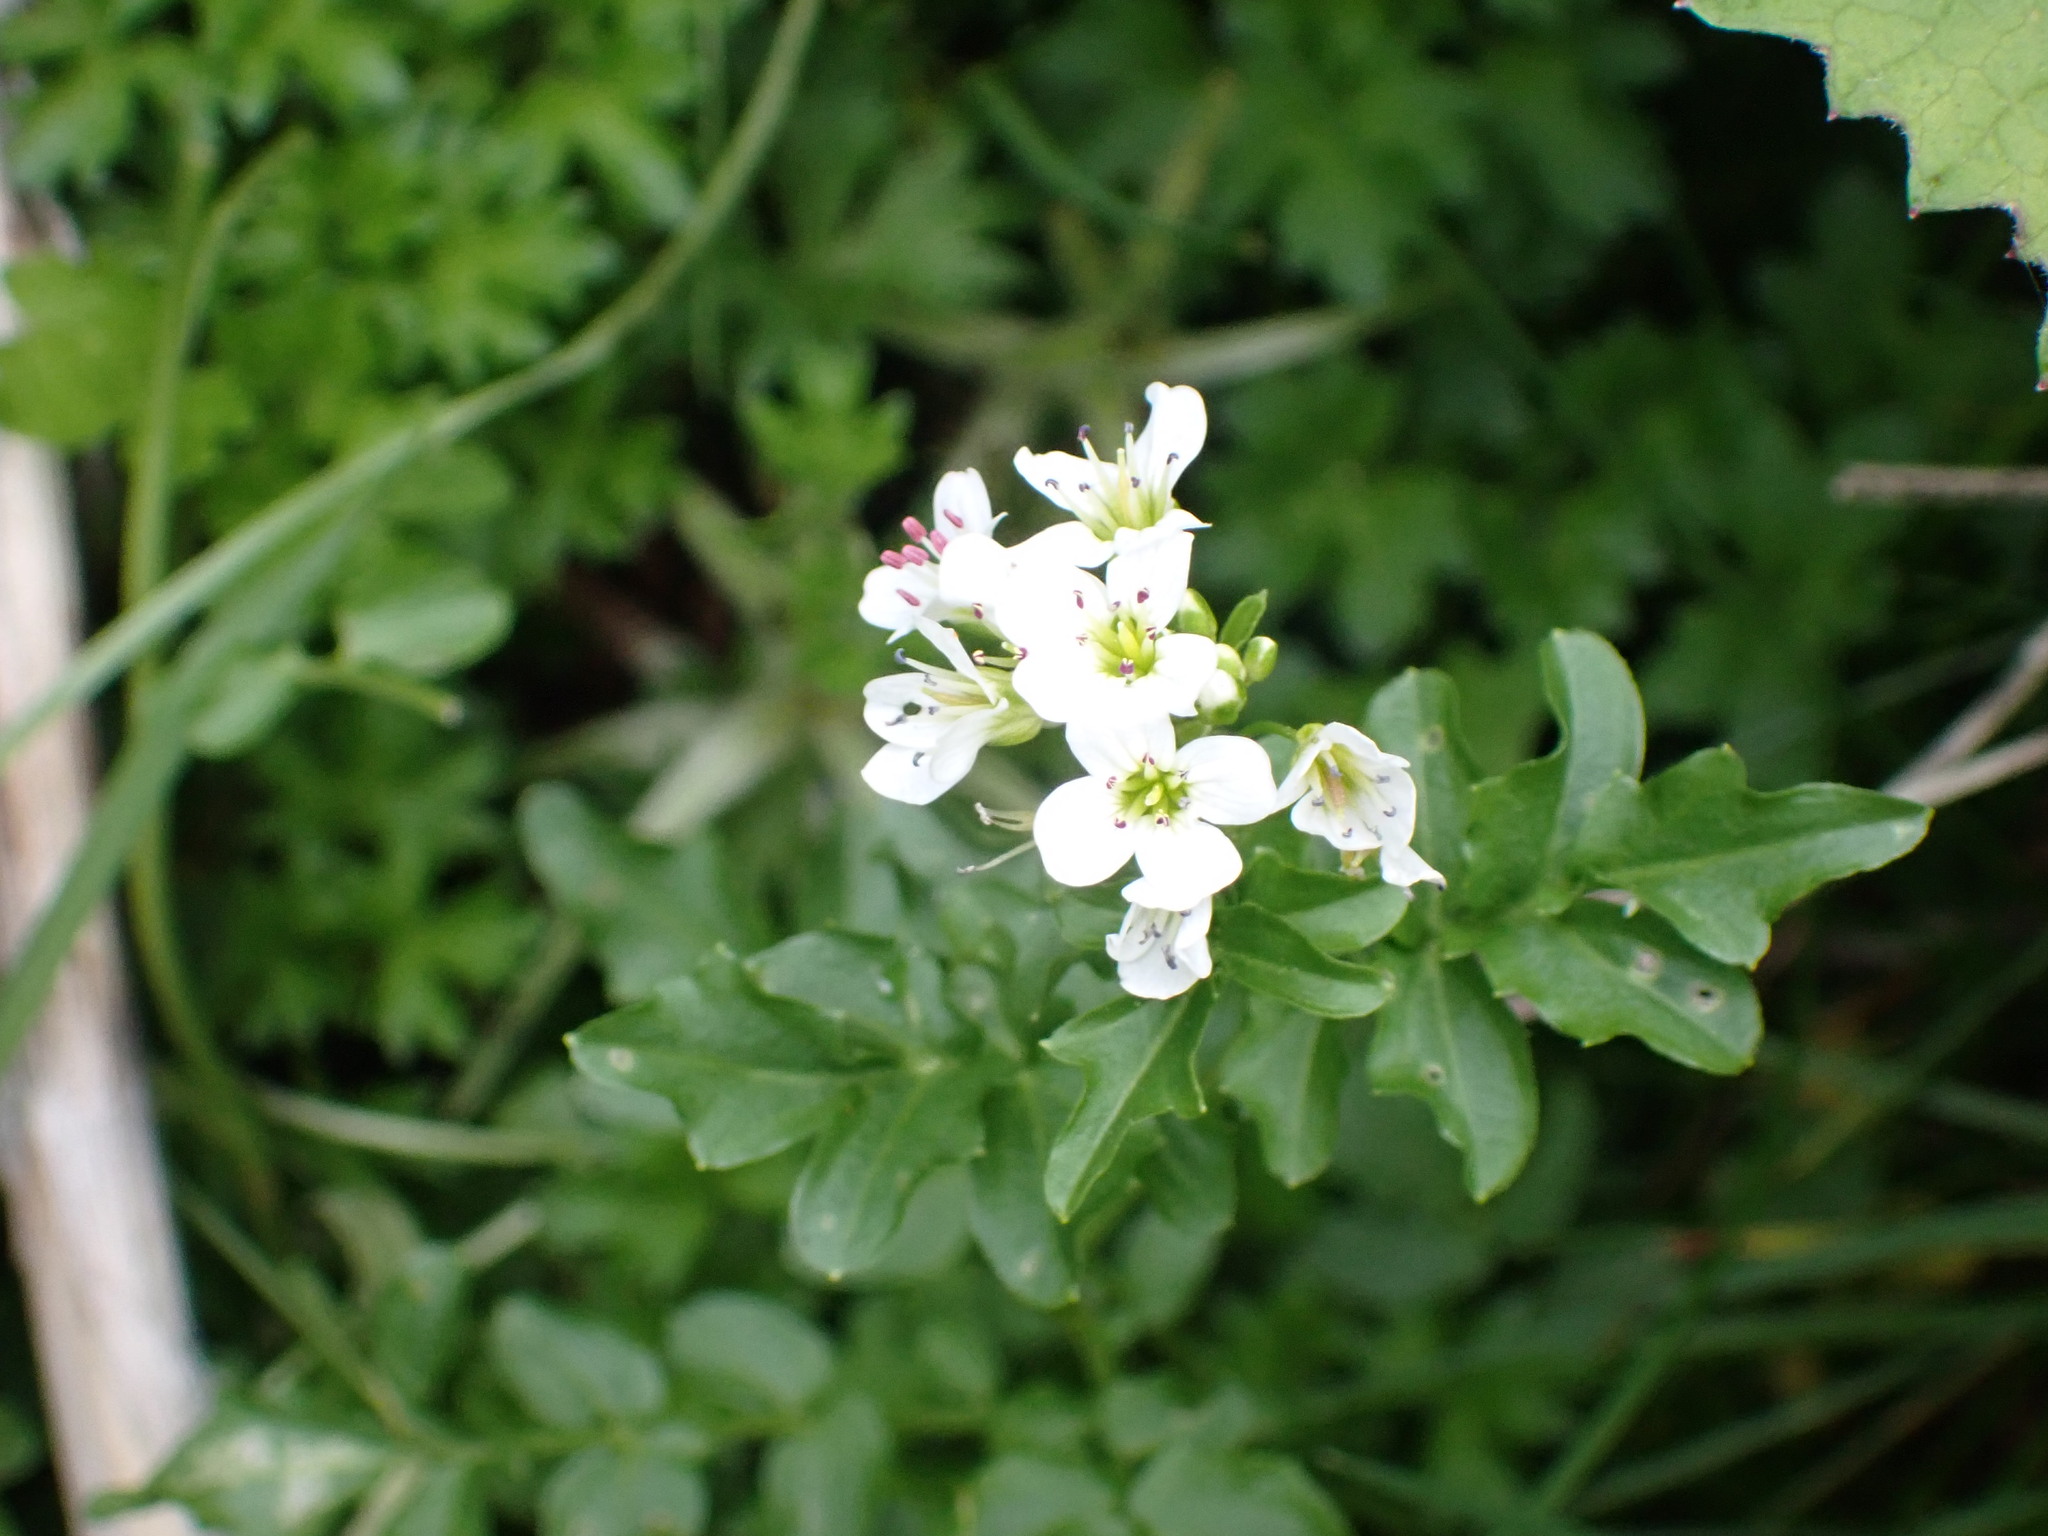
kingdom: Plantae
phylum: Tracheophyta
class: Magnoliopsida
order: Brassicales
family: Brassicaceae
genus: Cardamine
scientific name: Cardamine amara
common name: Large bitter-cress
